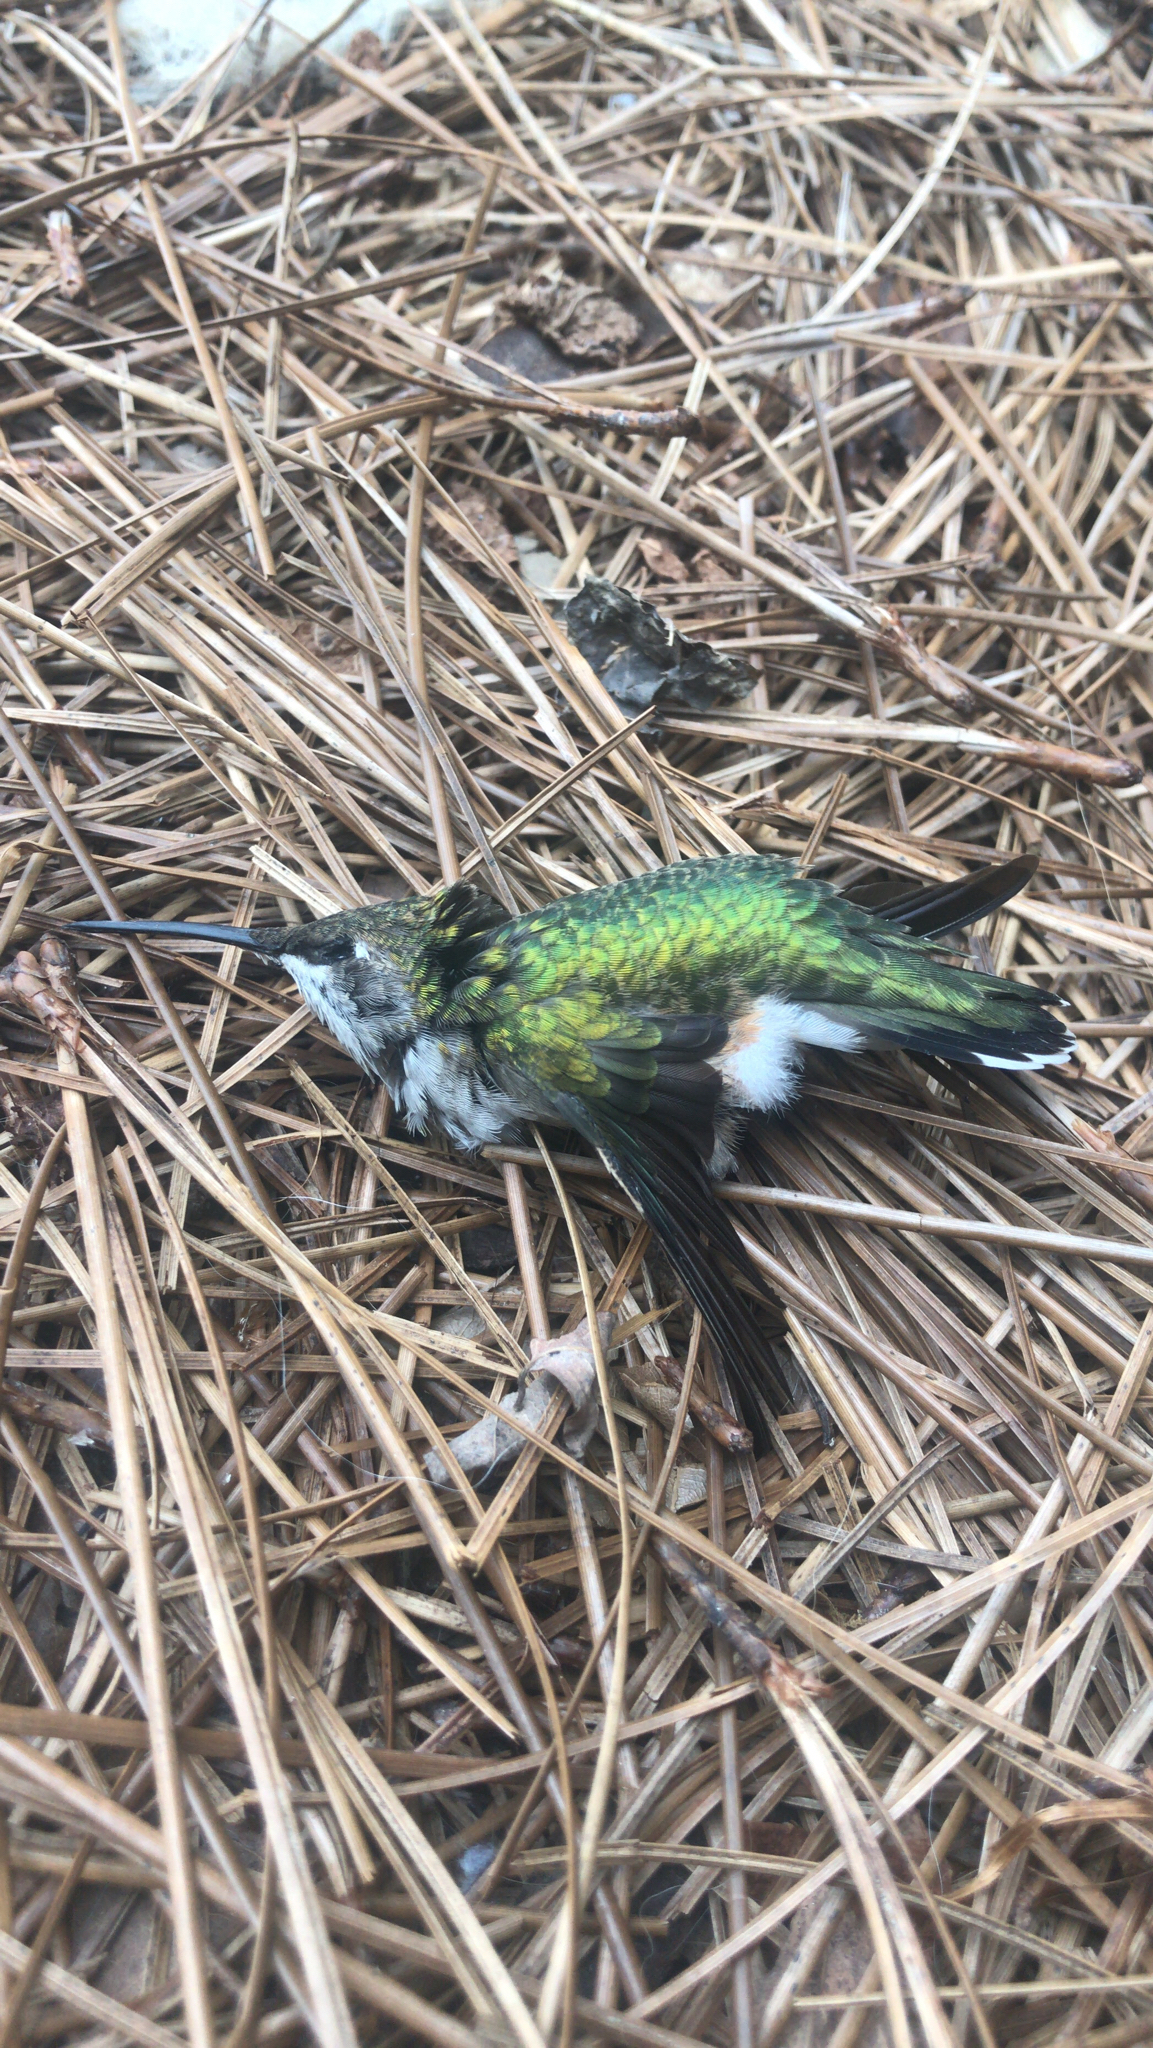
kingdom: Animalia
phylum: Chordata
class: Aves
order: Apodiformes
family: Trochilidae
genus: Archilochus
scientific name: Archilochus colubris
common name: Ruby-throated hummingbird
